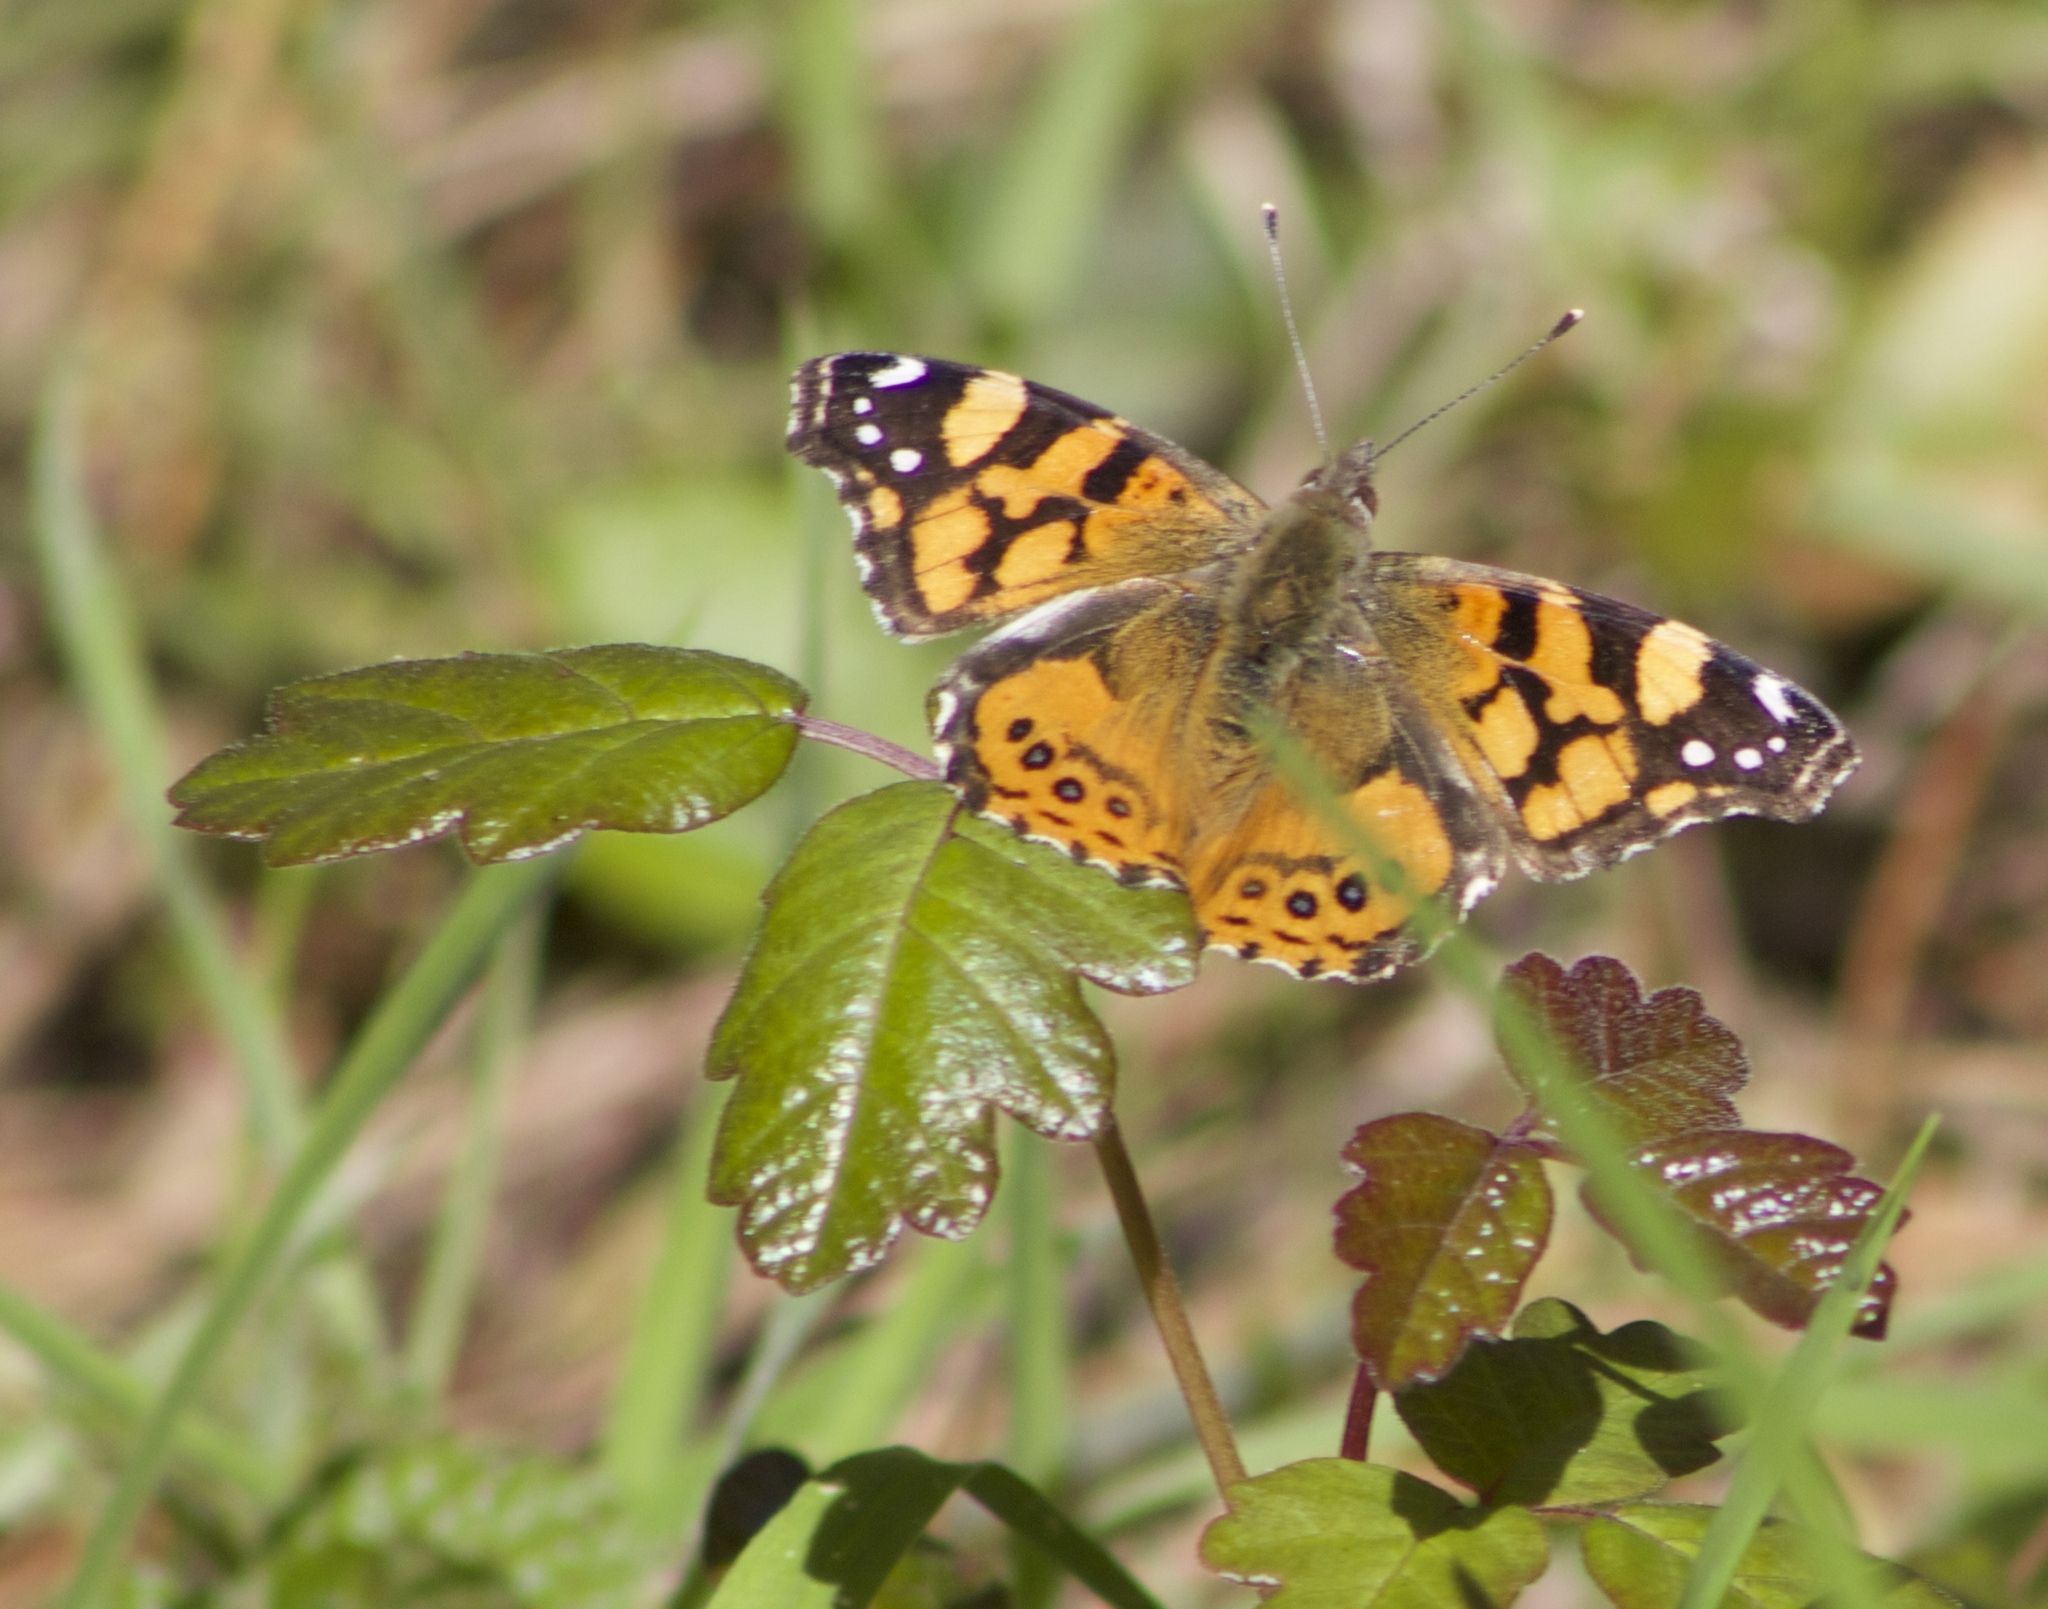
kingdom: Animalia
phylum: Arthropoda
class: Insecta
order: Lepidoptera
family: Nymphalidae
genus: Vanessa
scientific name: Vanessa annabella
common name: West coast lady
